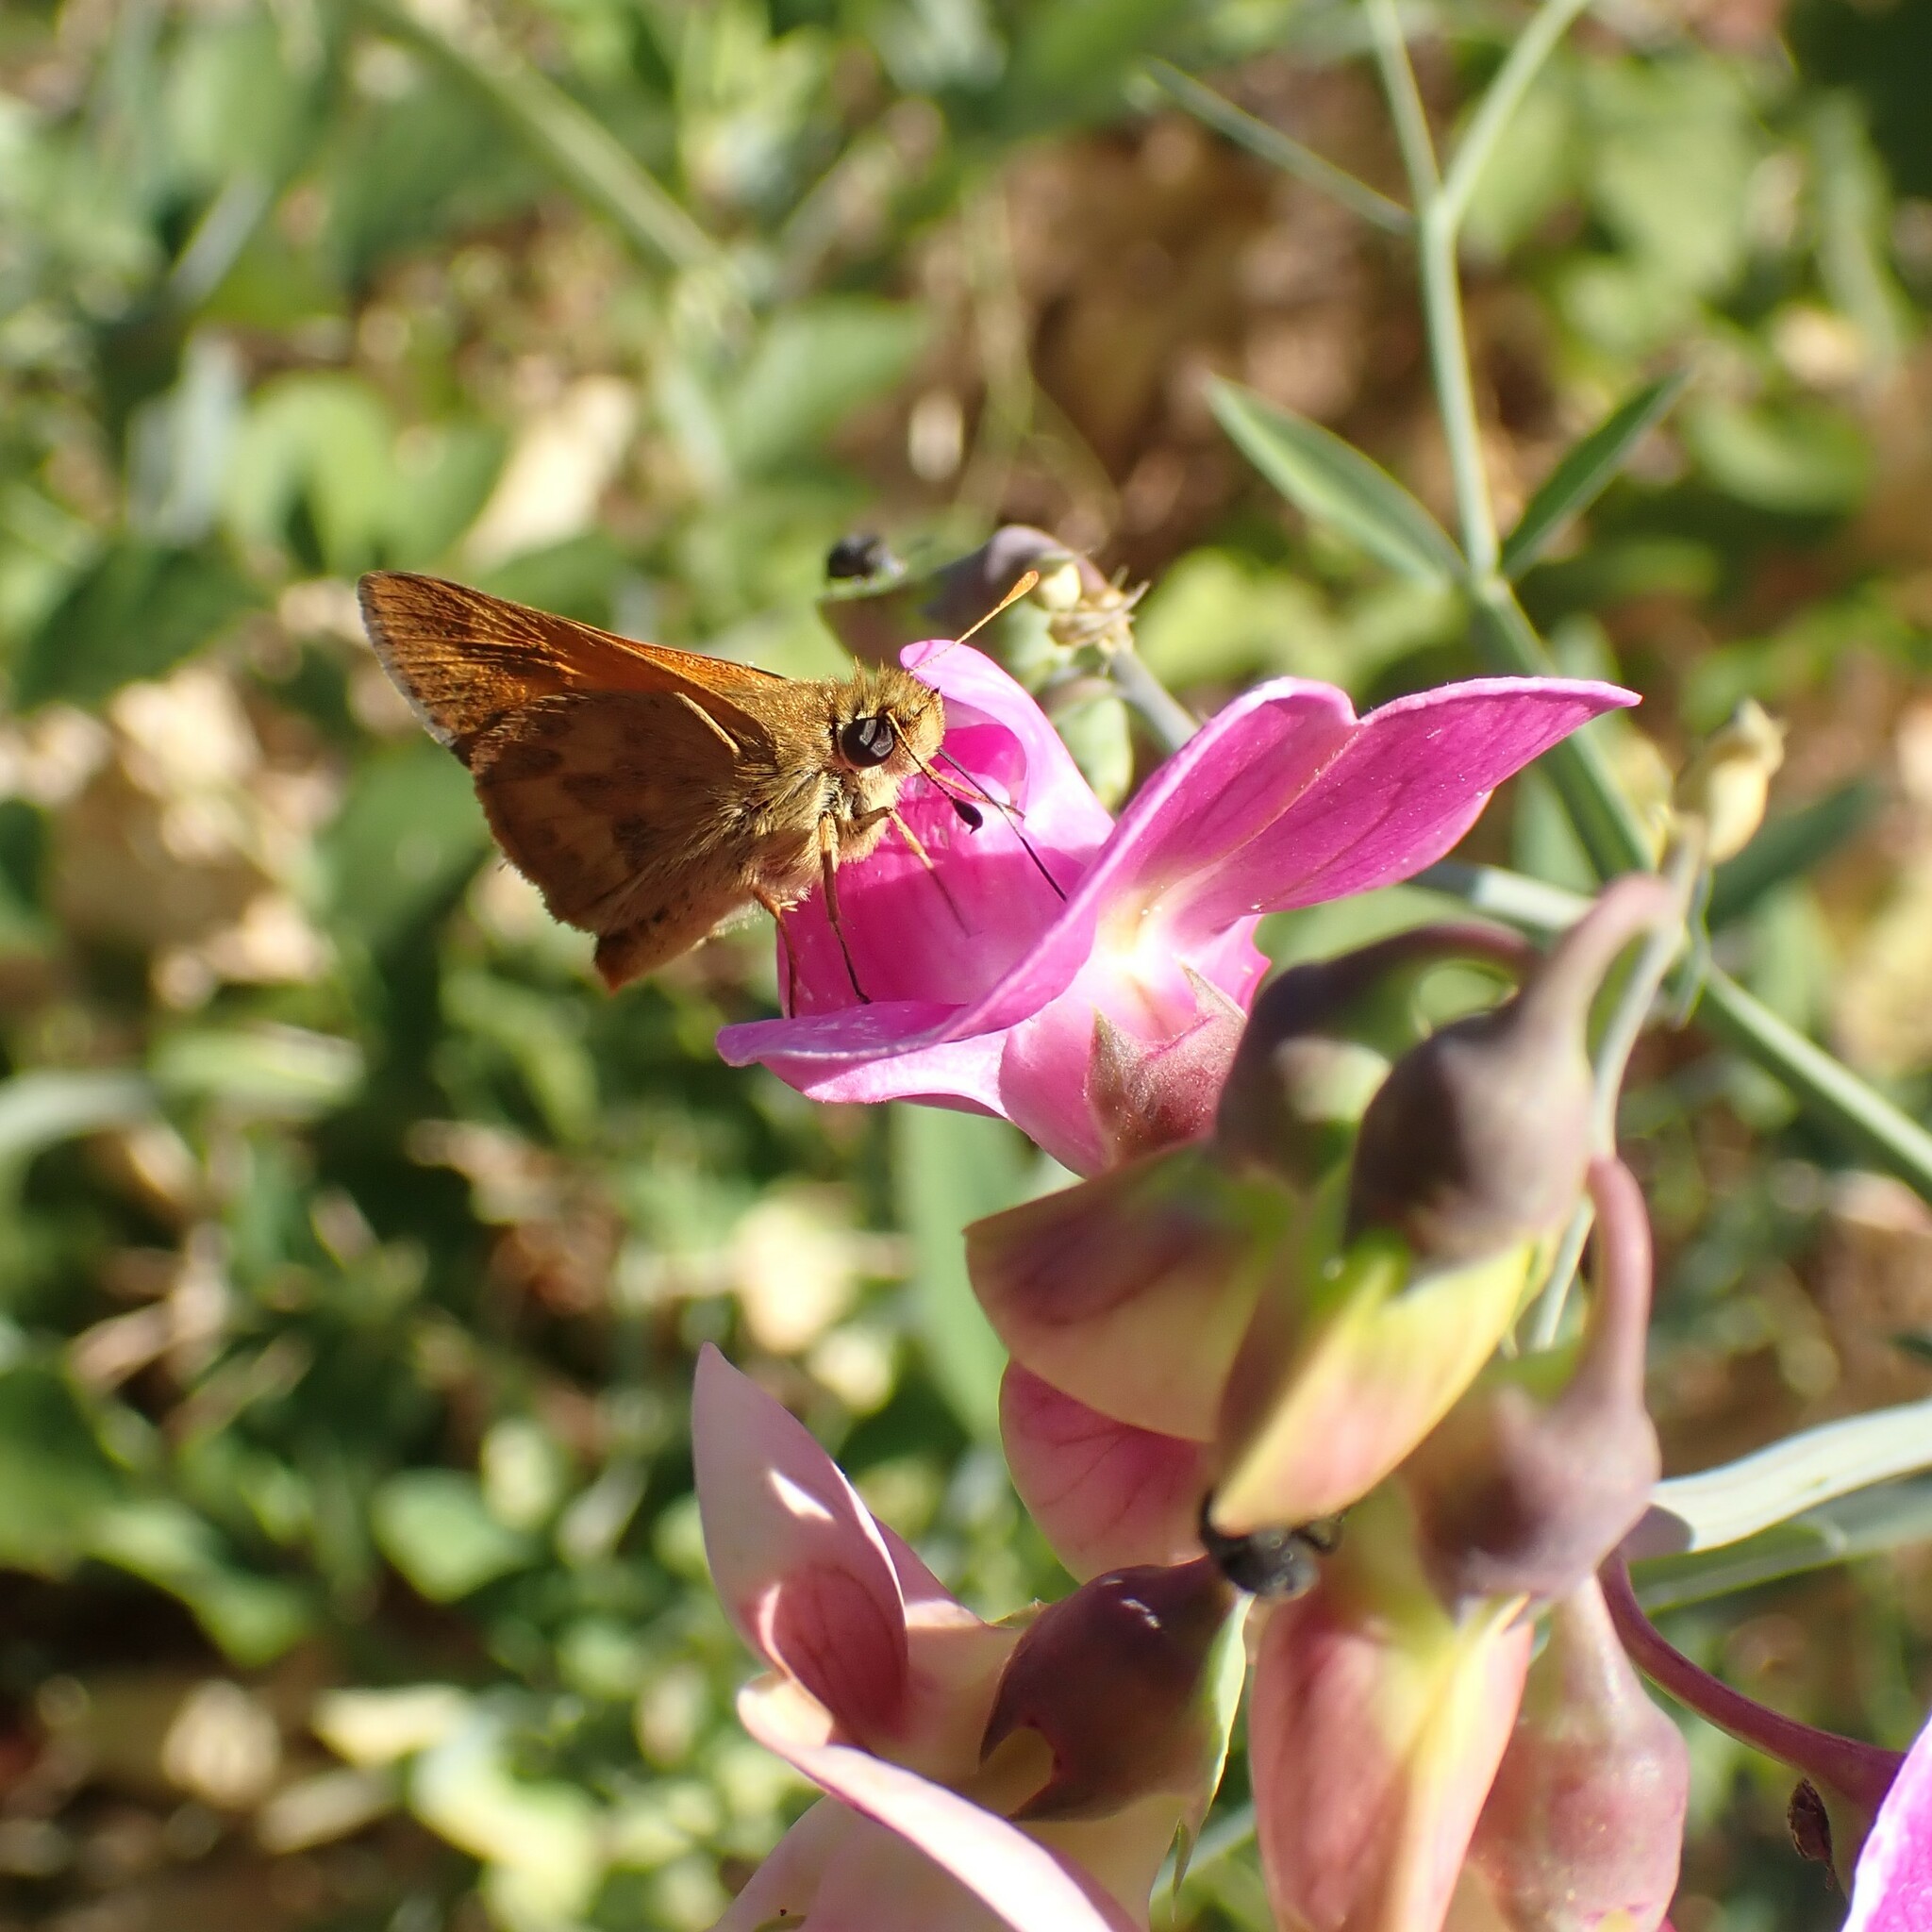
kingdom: Animalia
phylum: Arthropoda
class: Insecta
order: Lepidoptera
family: Hesperiidae
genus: Ochlodes
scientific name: Ochlodes sylvanoides
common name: Woodland skipper
